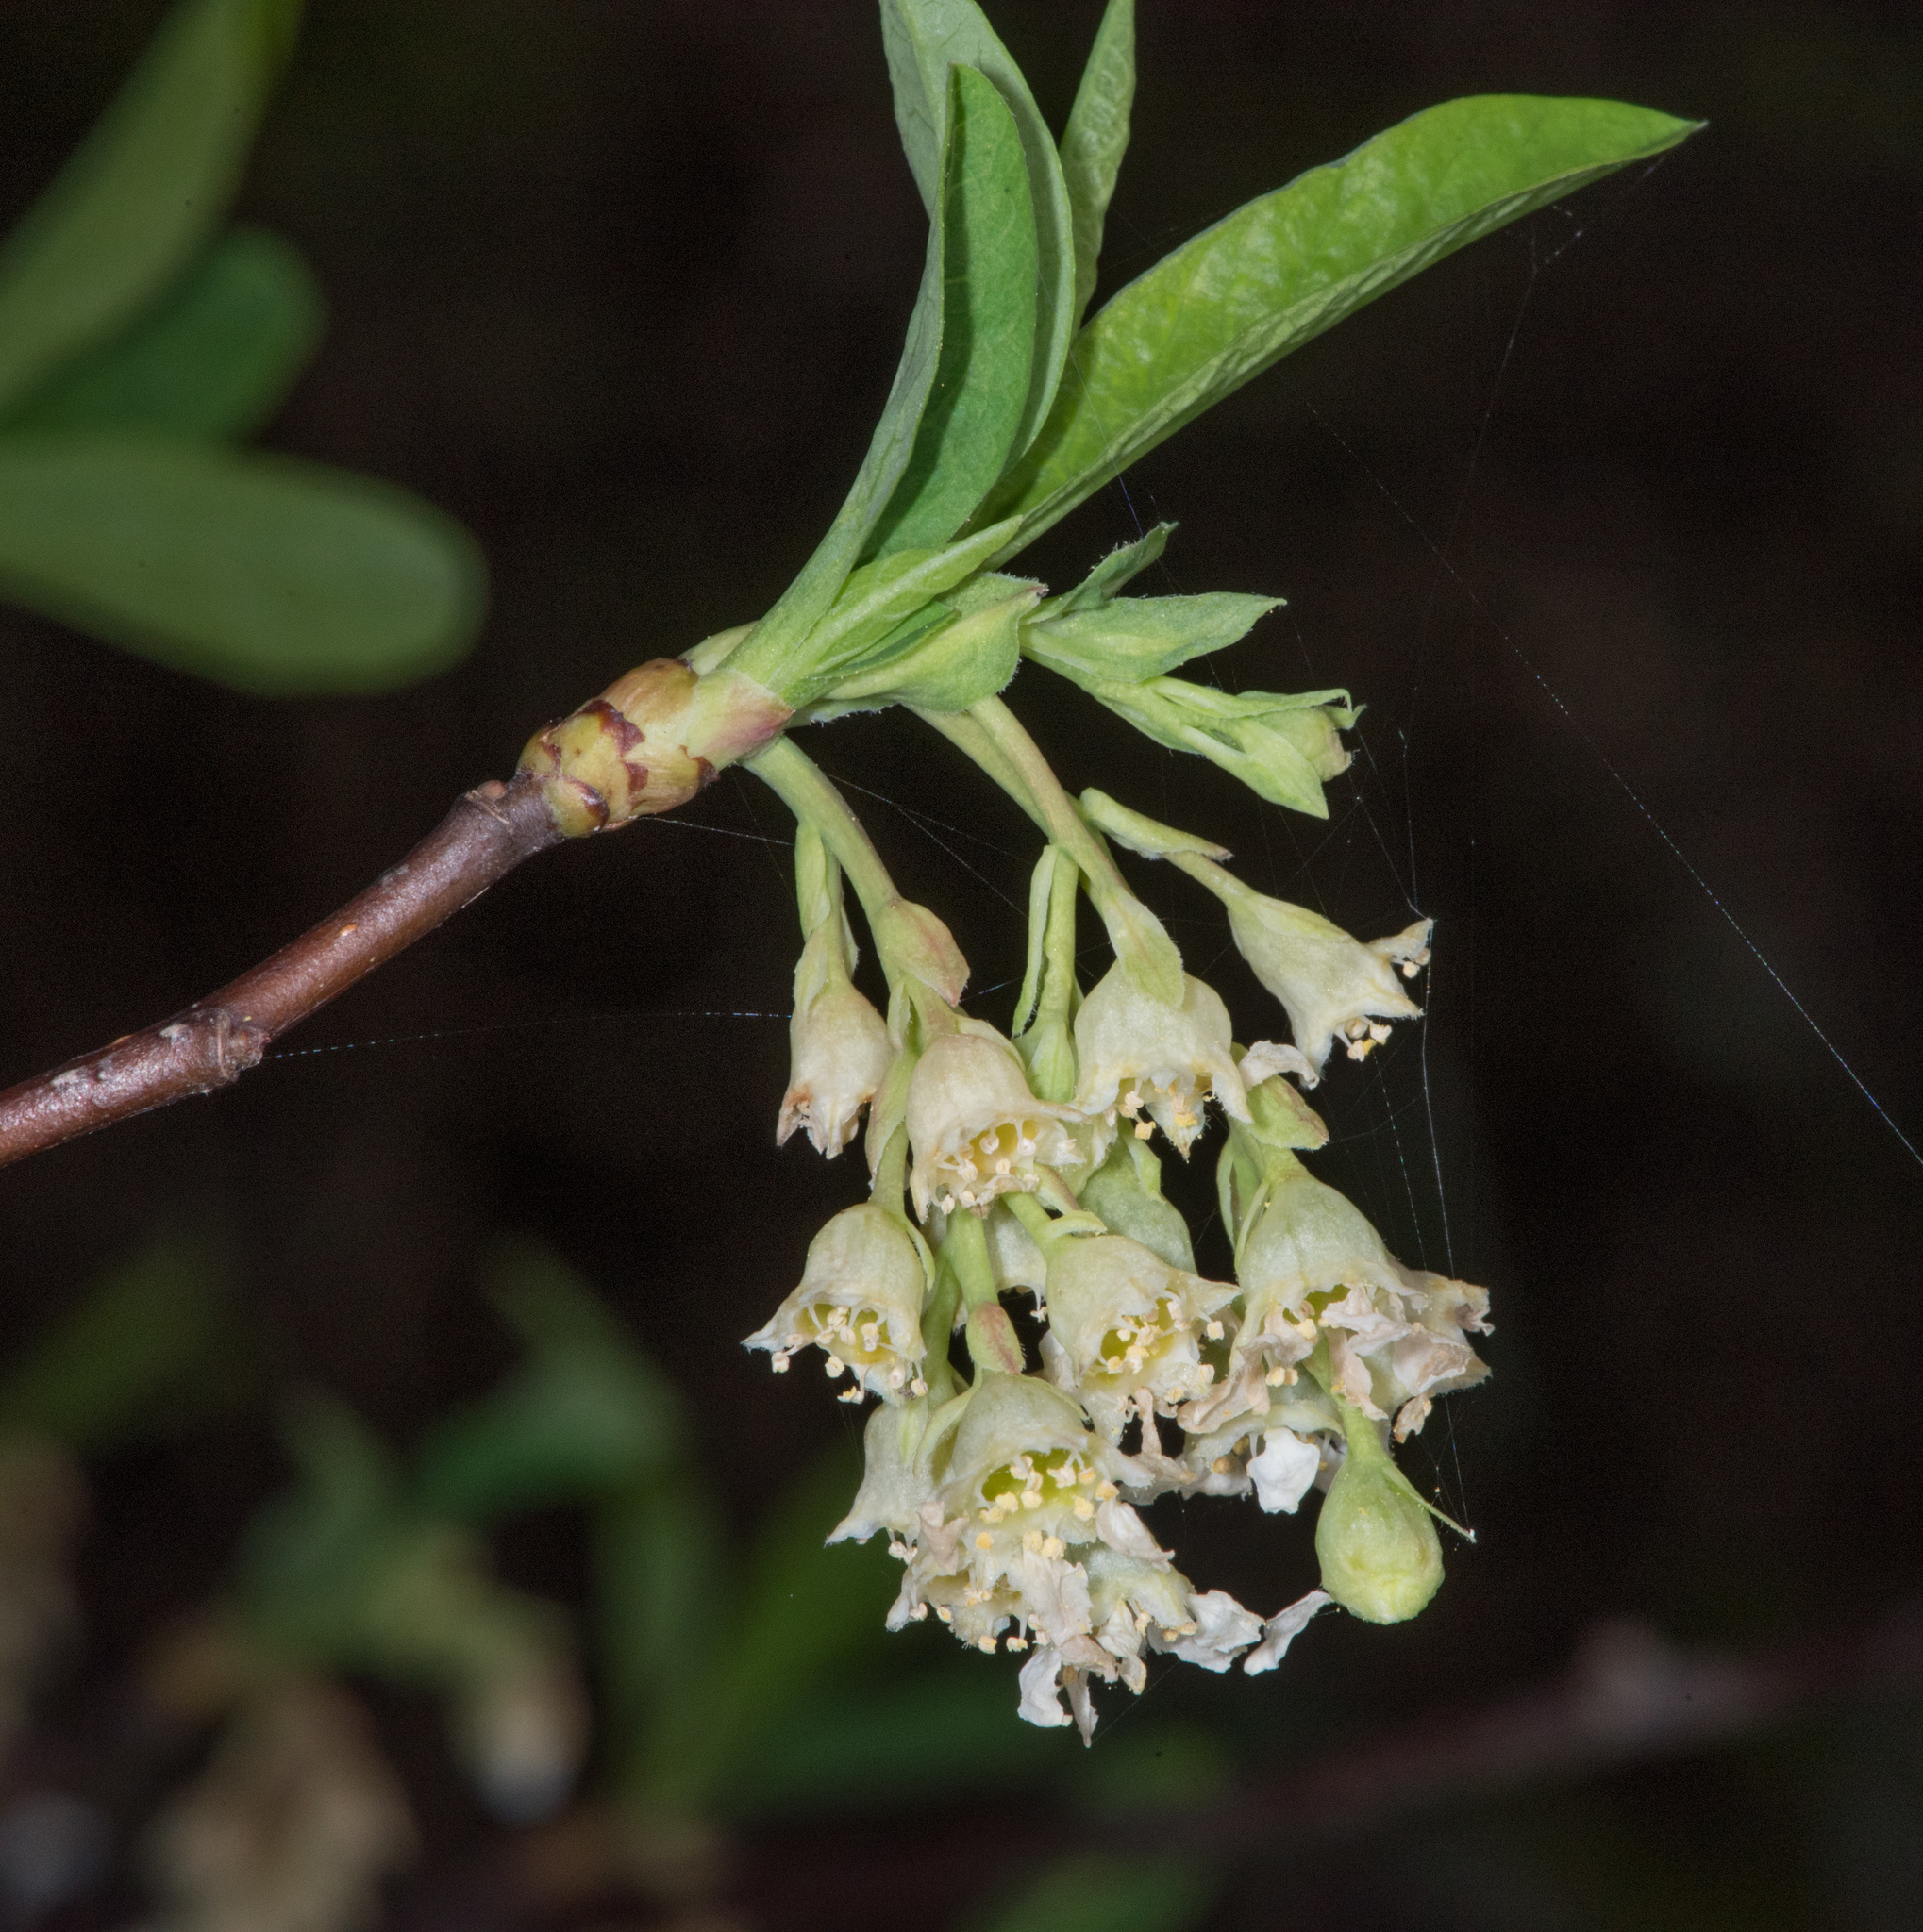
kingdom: Plantae
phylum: Tracheophyta
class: Magnoliopsida
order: Rosales
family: Rosaceae
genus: Oemleria
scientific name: Oemleria cerasiformis
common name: Osoberry
